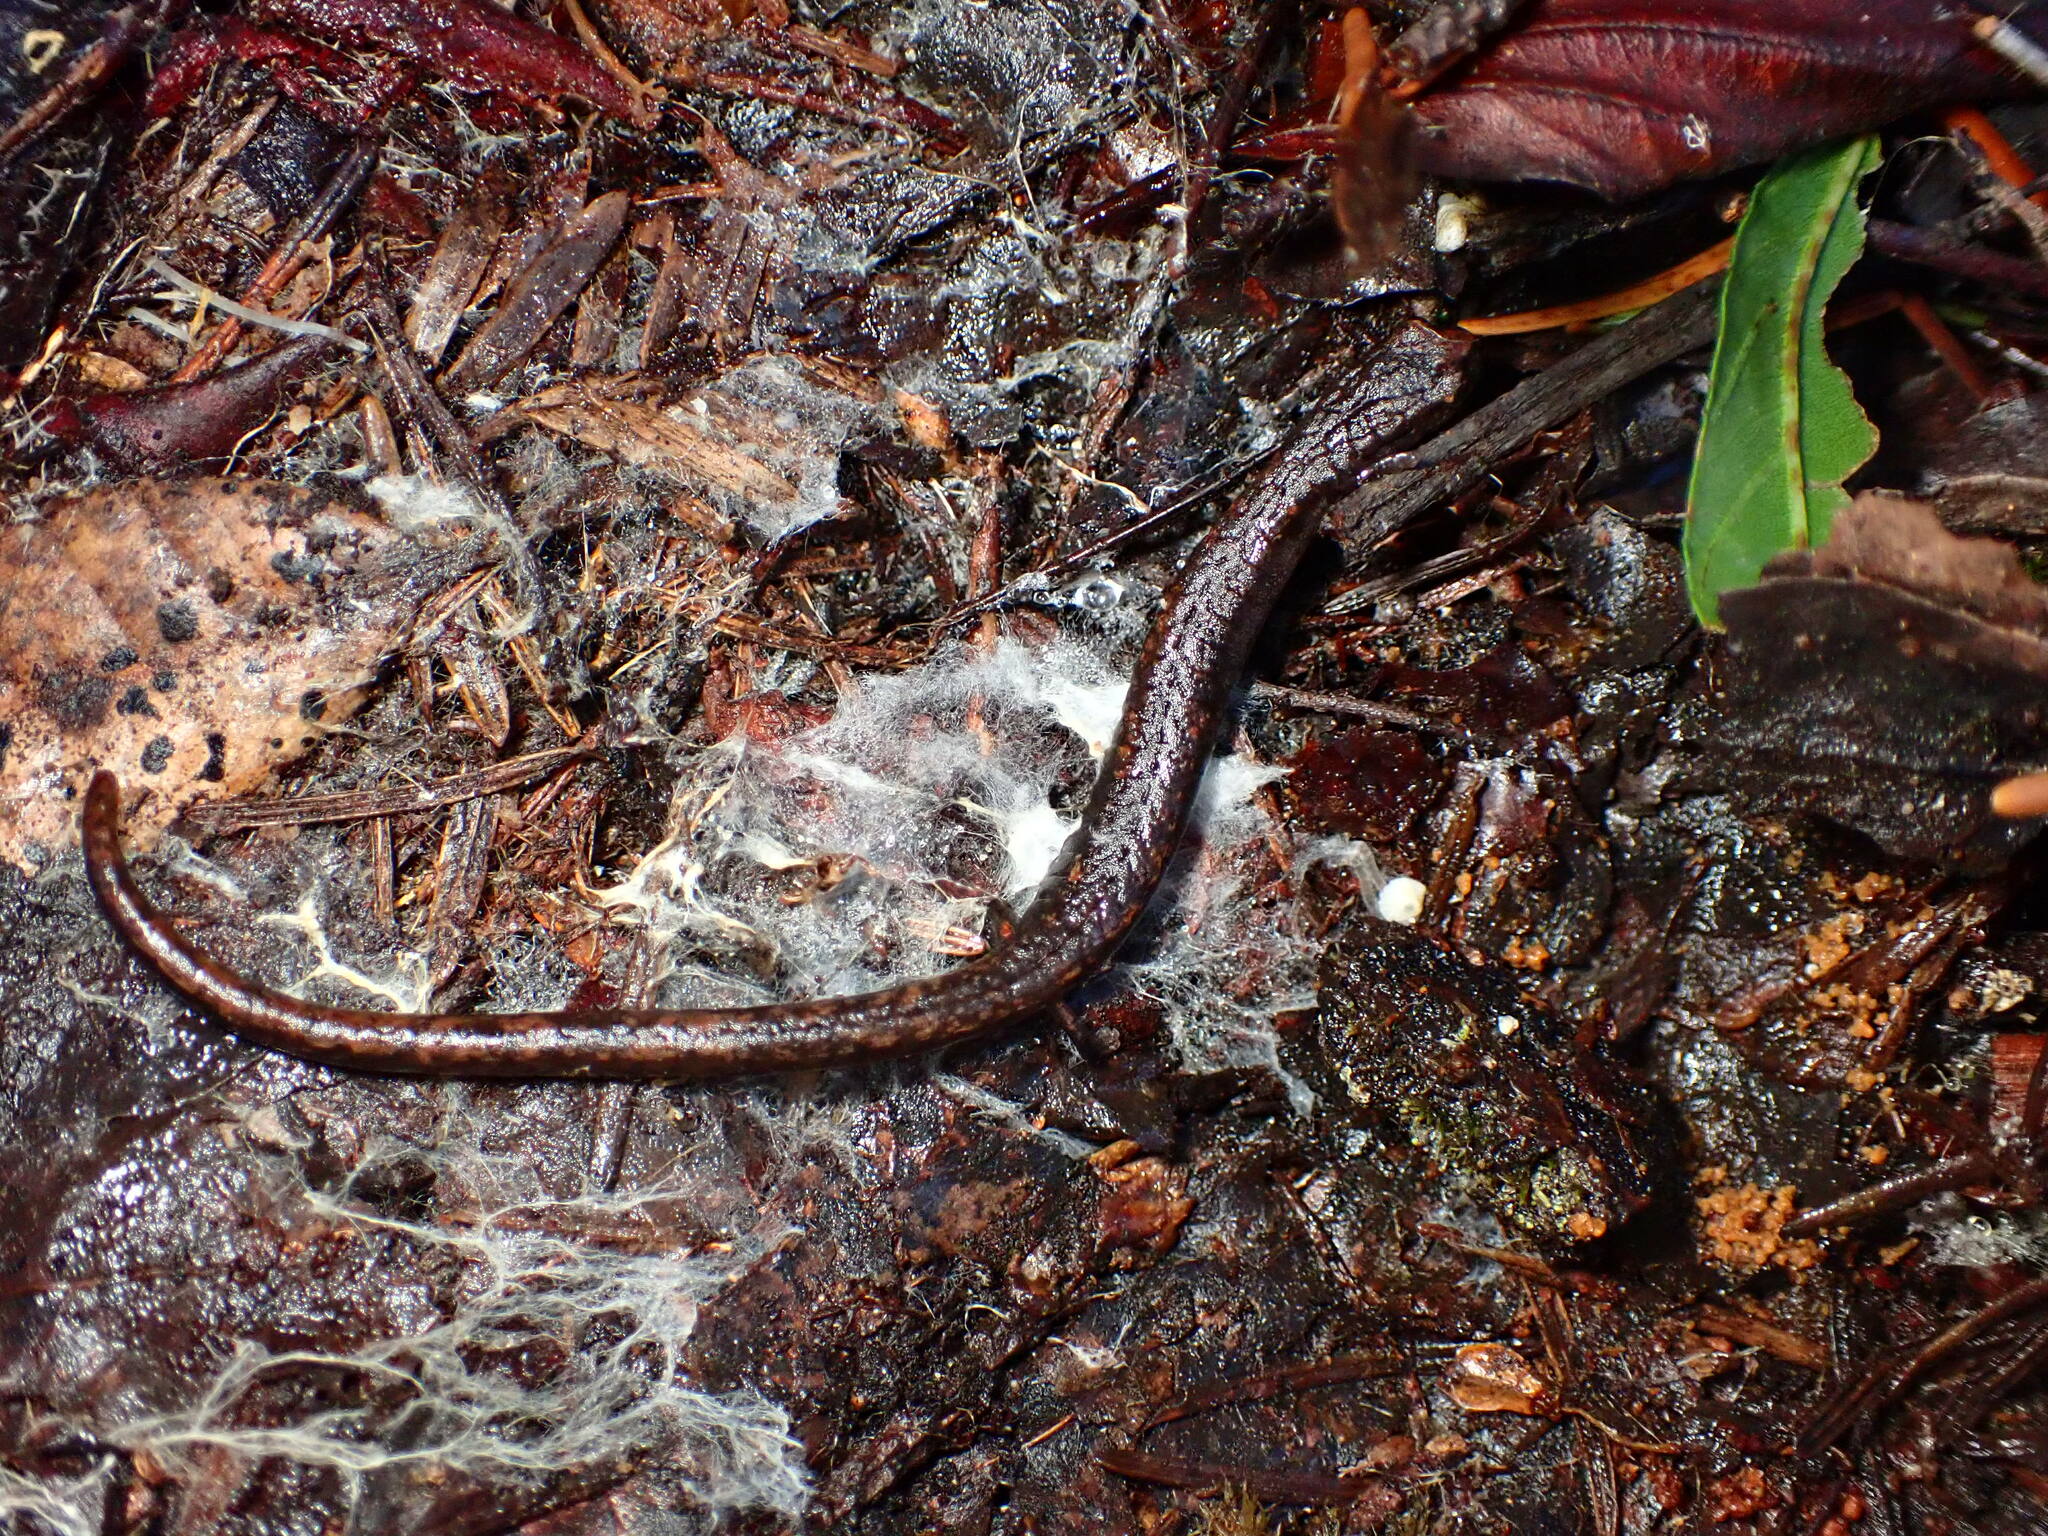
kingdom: Animalia
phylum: Chordata
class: Amphibia
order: Caudata
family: Plethodontidae
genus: Batrachoseps
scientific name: Batrachoseps attenuatus
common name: California slender salamander
